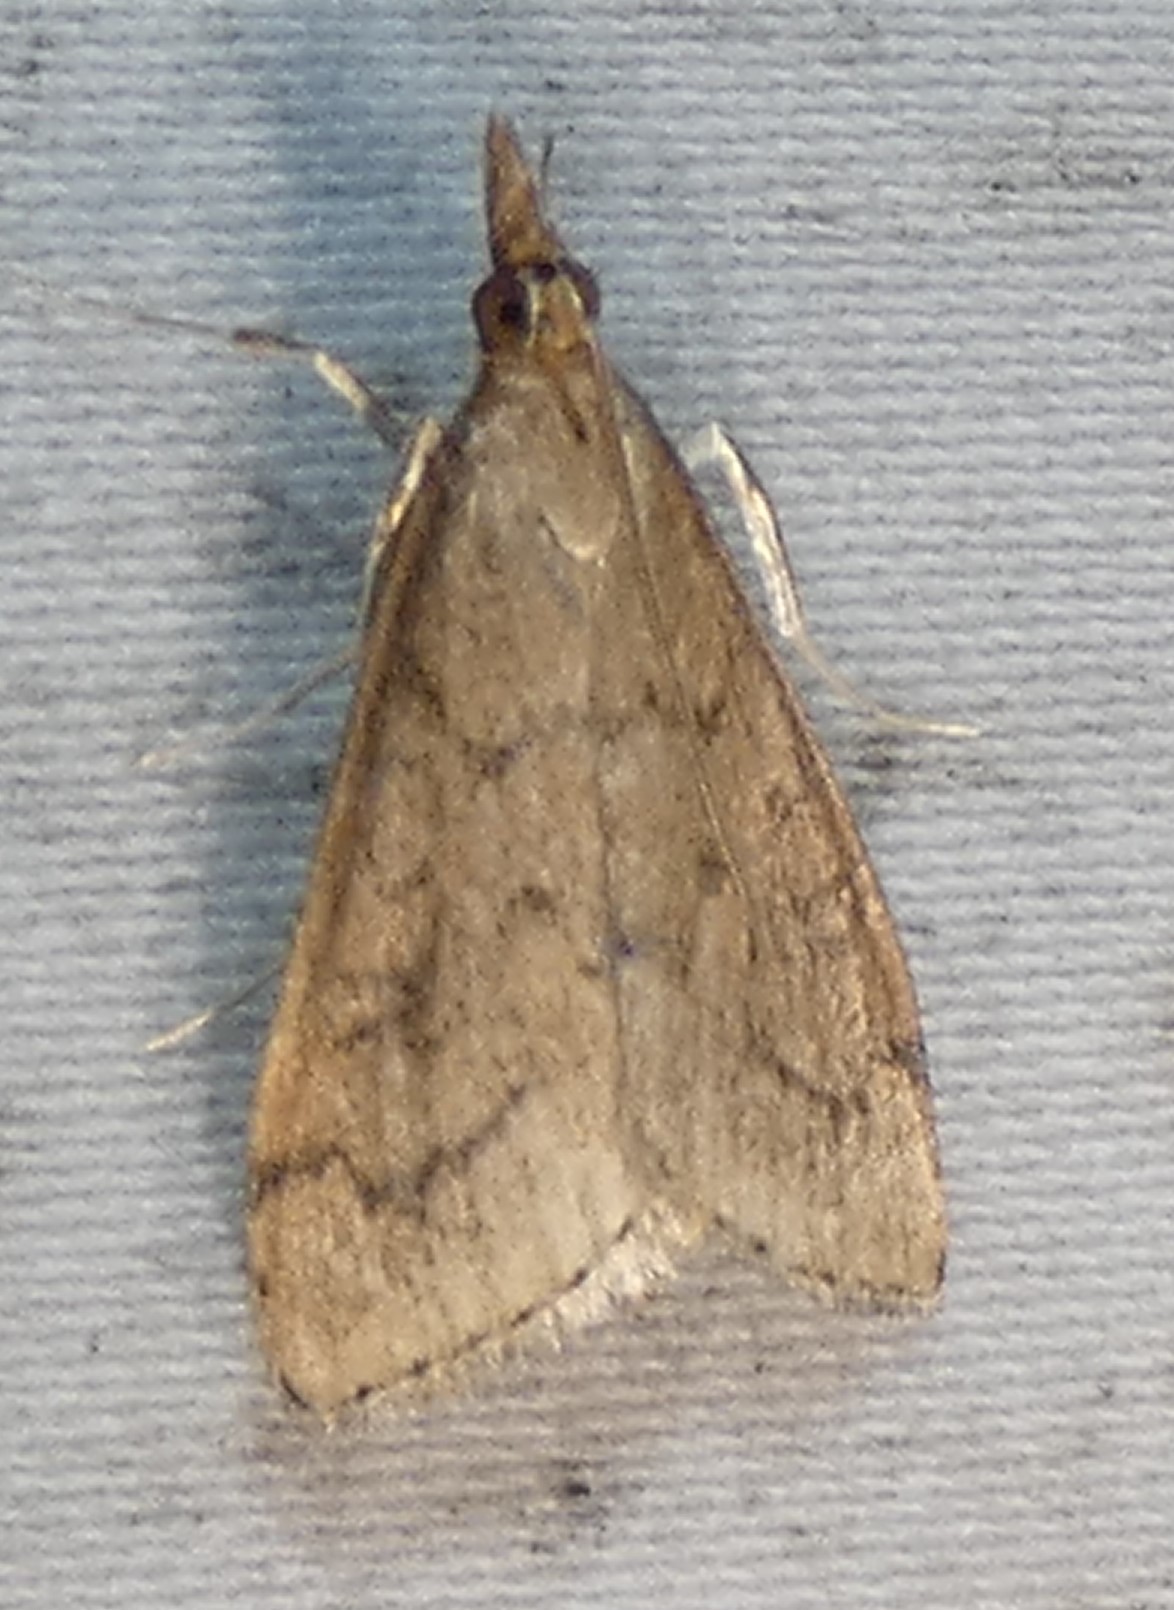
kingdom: Animalia
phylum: Arthropoda
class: Insecta
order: Lepidoptera
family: Crambidae
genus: Udea
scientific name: Udea rubigalis
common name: Celery leaftier moth
